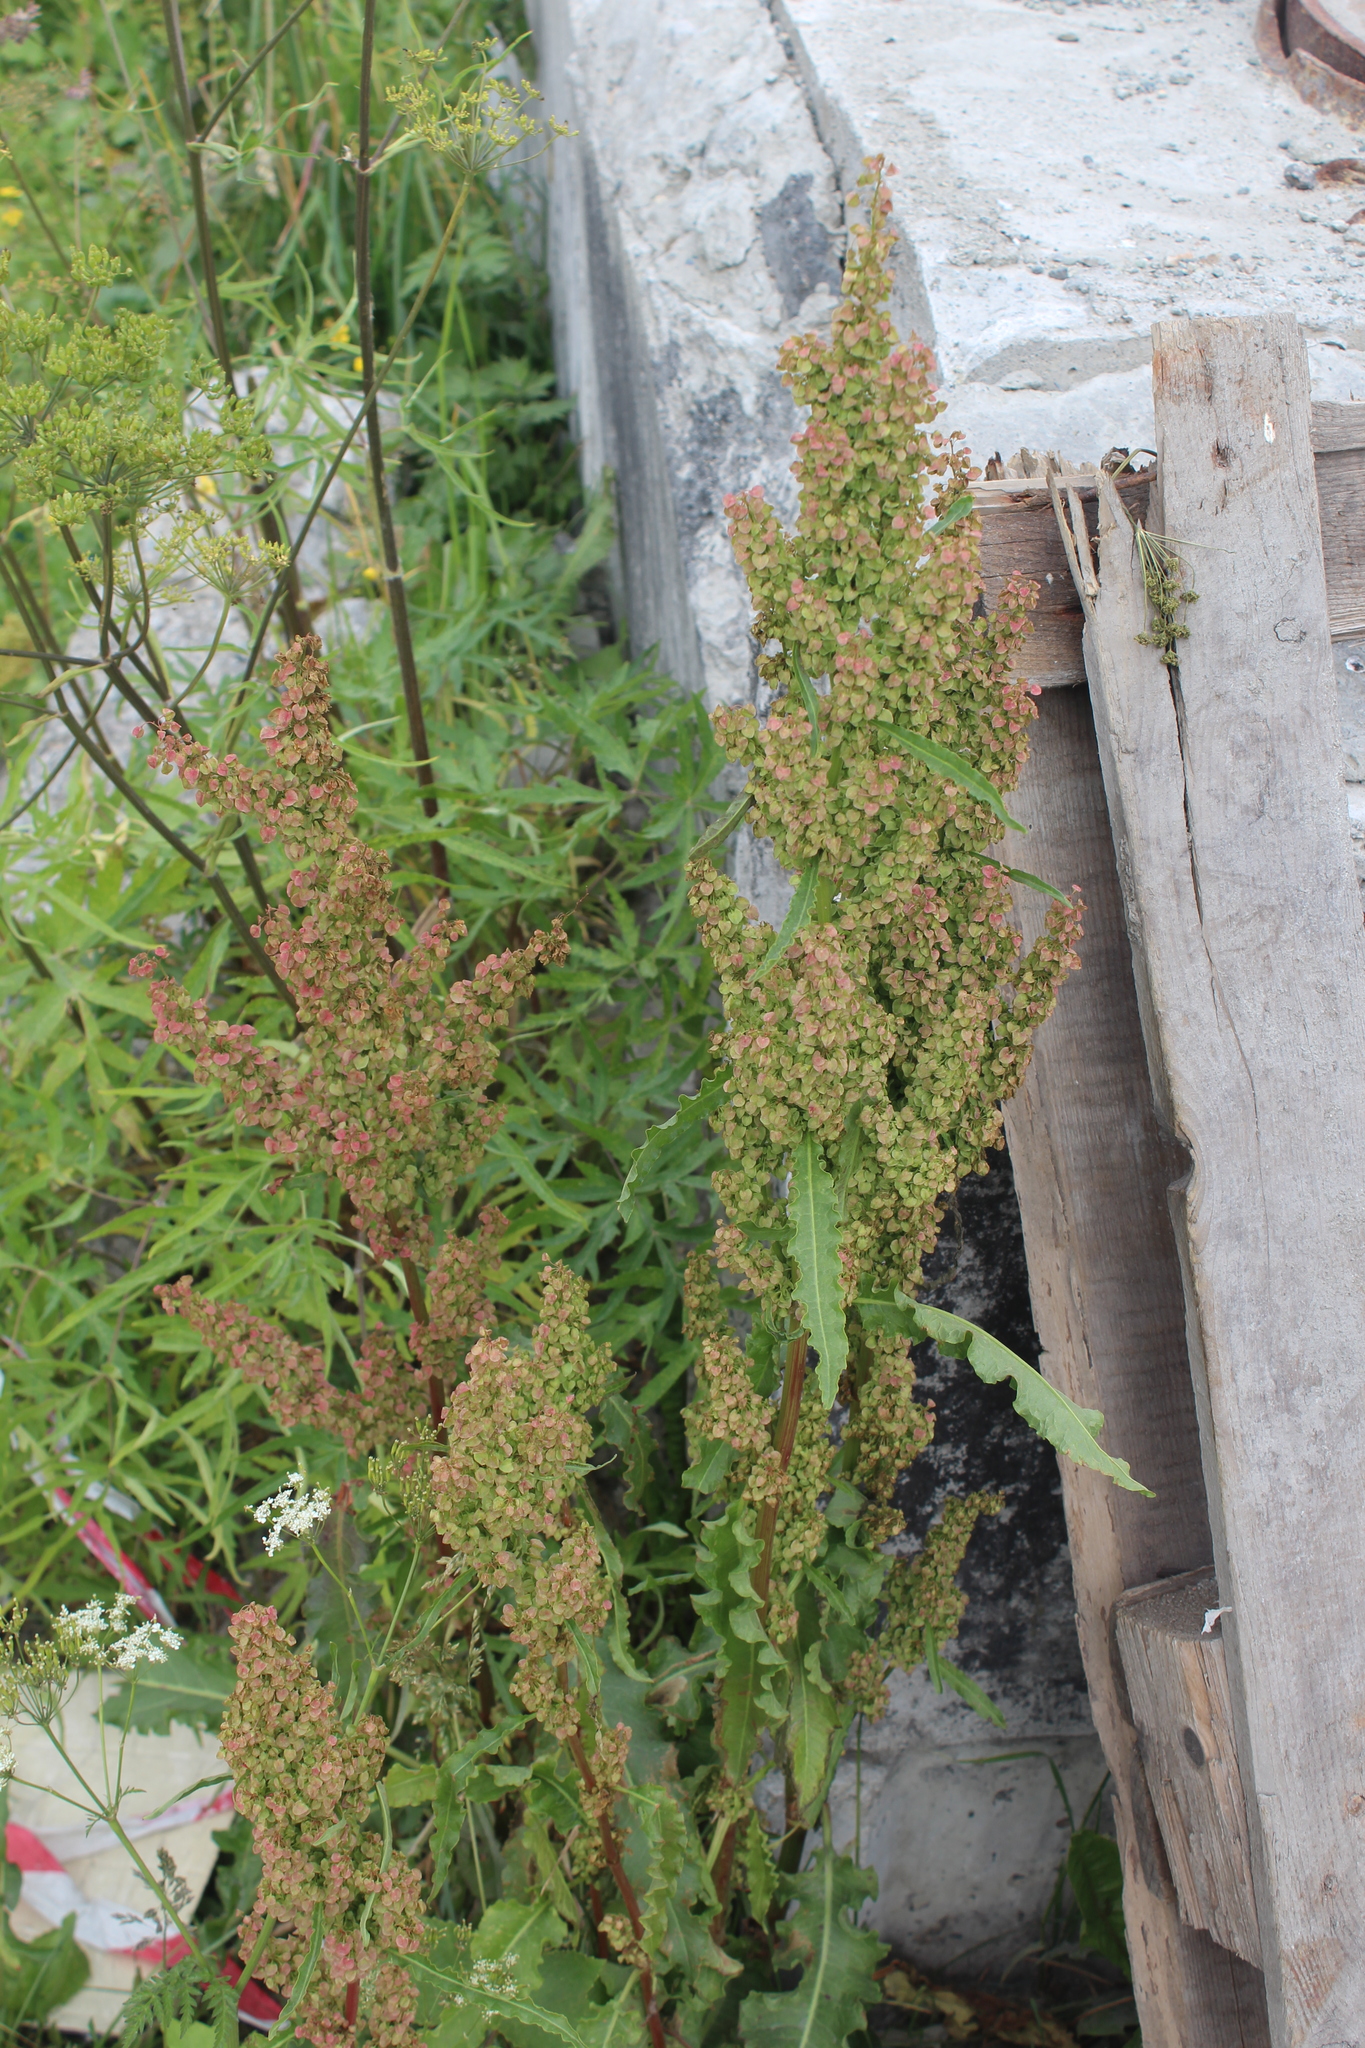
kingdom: Plantae
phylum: Tracheophyta
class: Magnoliopsida
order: Caryophyllales
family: Polygonaceae
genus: Rumex
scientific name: Rumex pseudonatronatus
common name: Field dock
